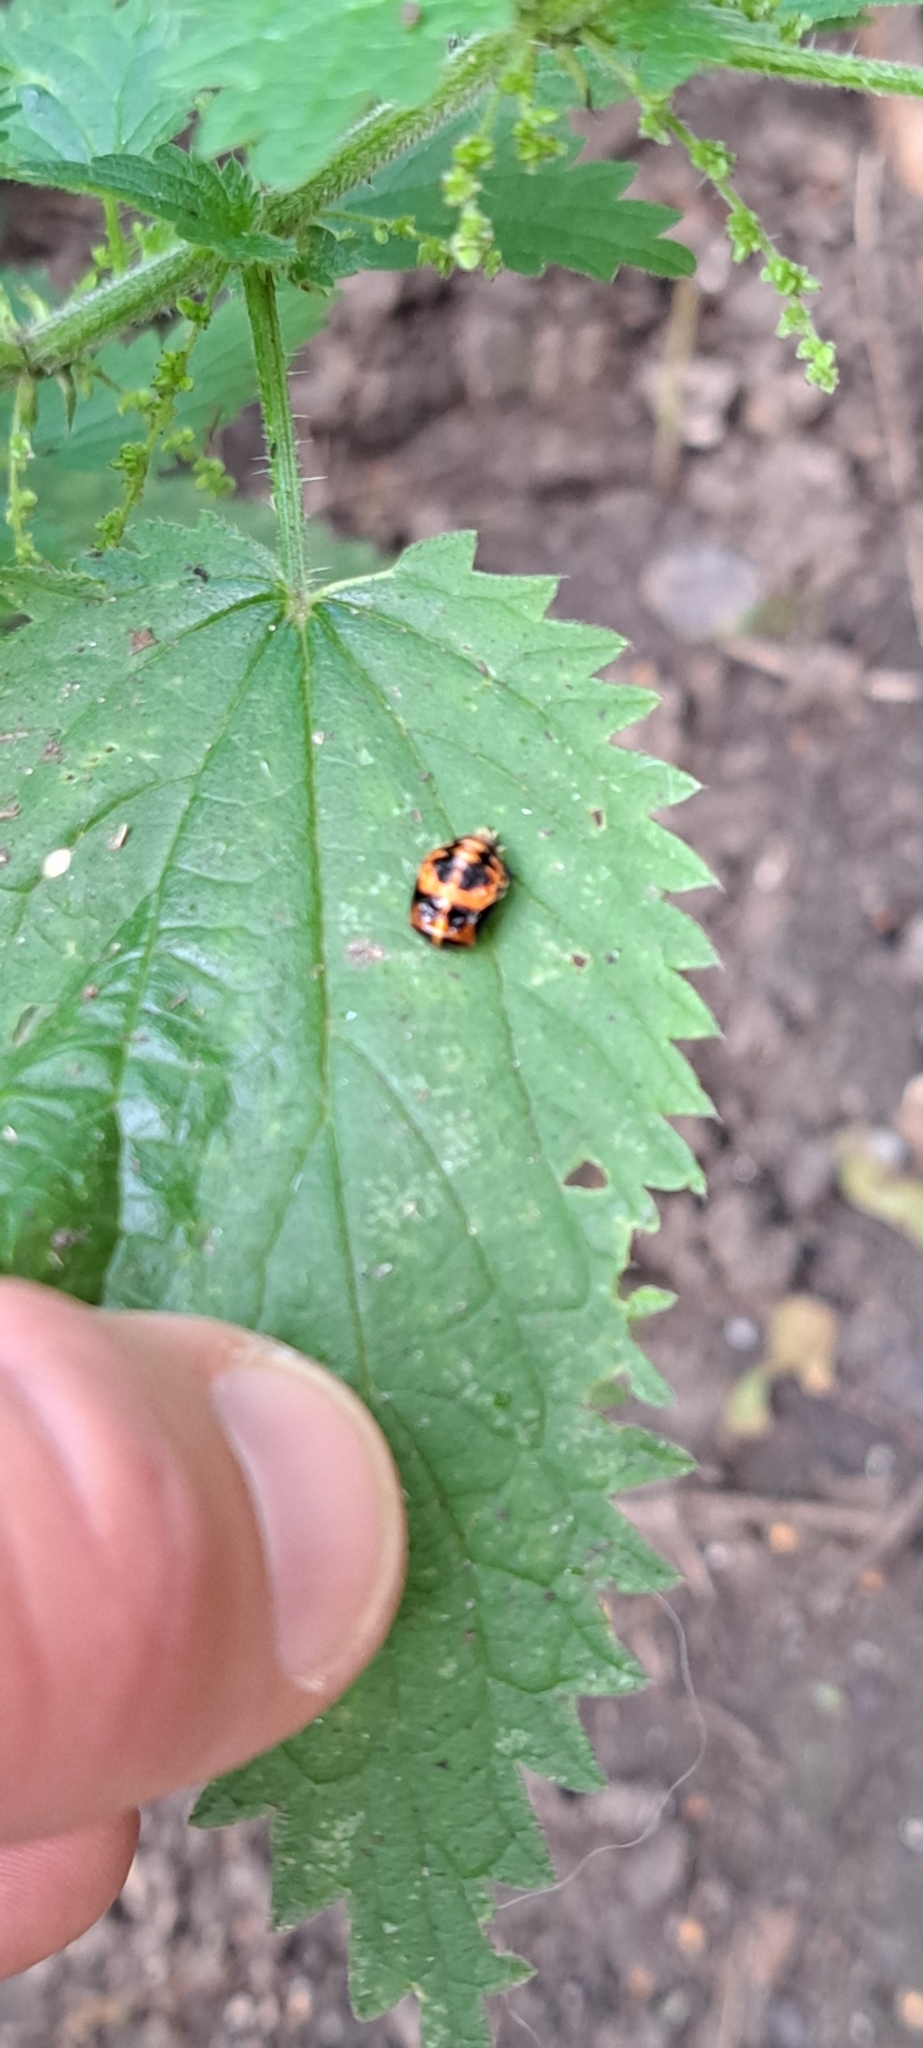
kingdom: Animalia
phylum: Arthropoda
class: Insecta
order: Coleoptera
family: Coccinellidae
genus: Harmonia
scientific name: Harmonia axyridis
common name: Harlequin ladybird
